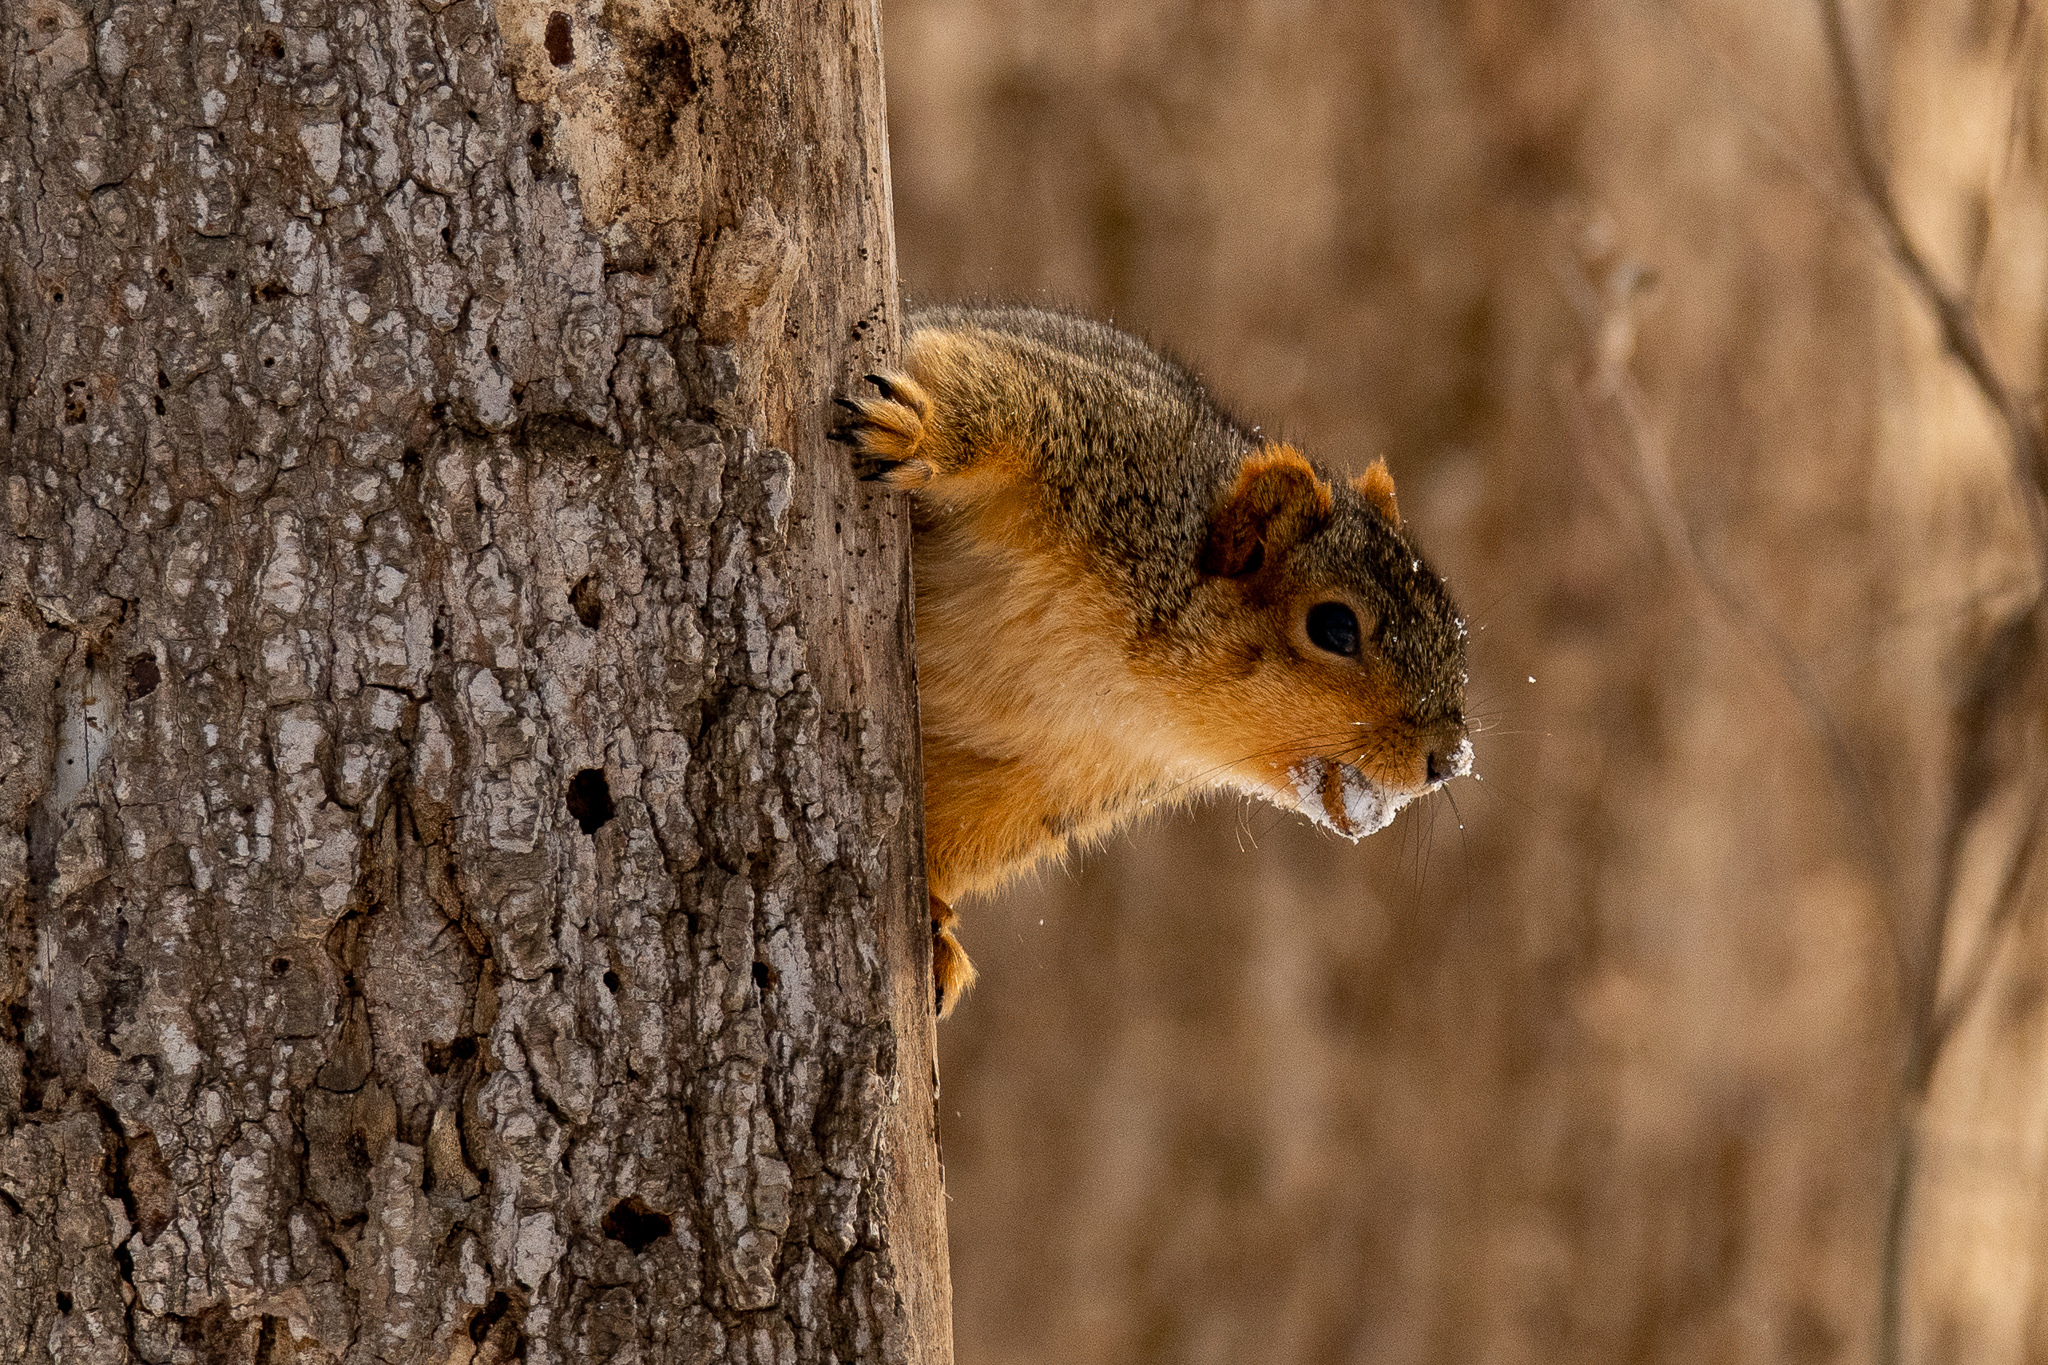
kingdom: Animalia
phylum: Chordata
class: Mammalia
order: Rodentia
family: Sciuridae
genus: Sciurus
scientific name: Sciurus niger
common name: Fox squirrel
